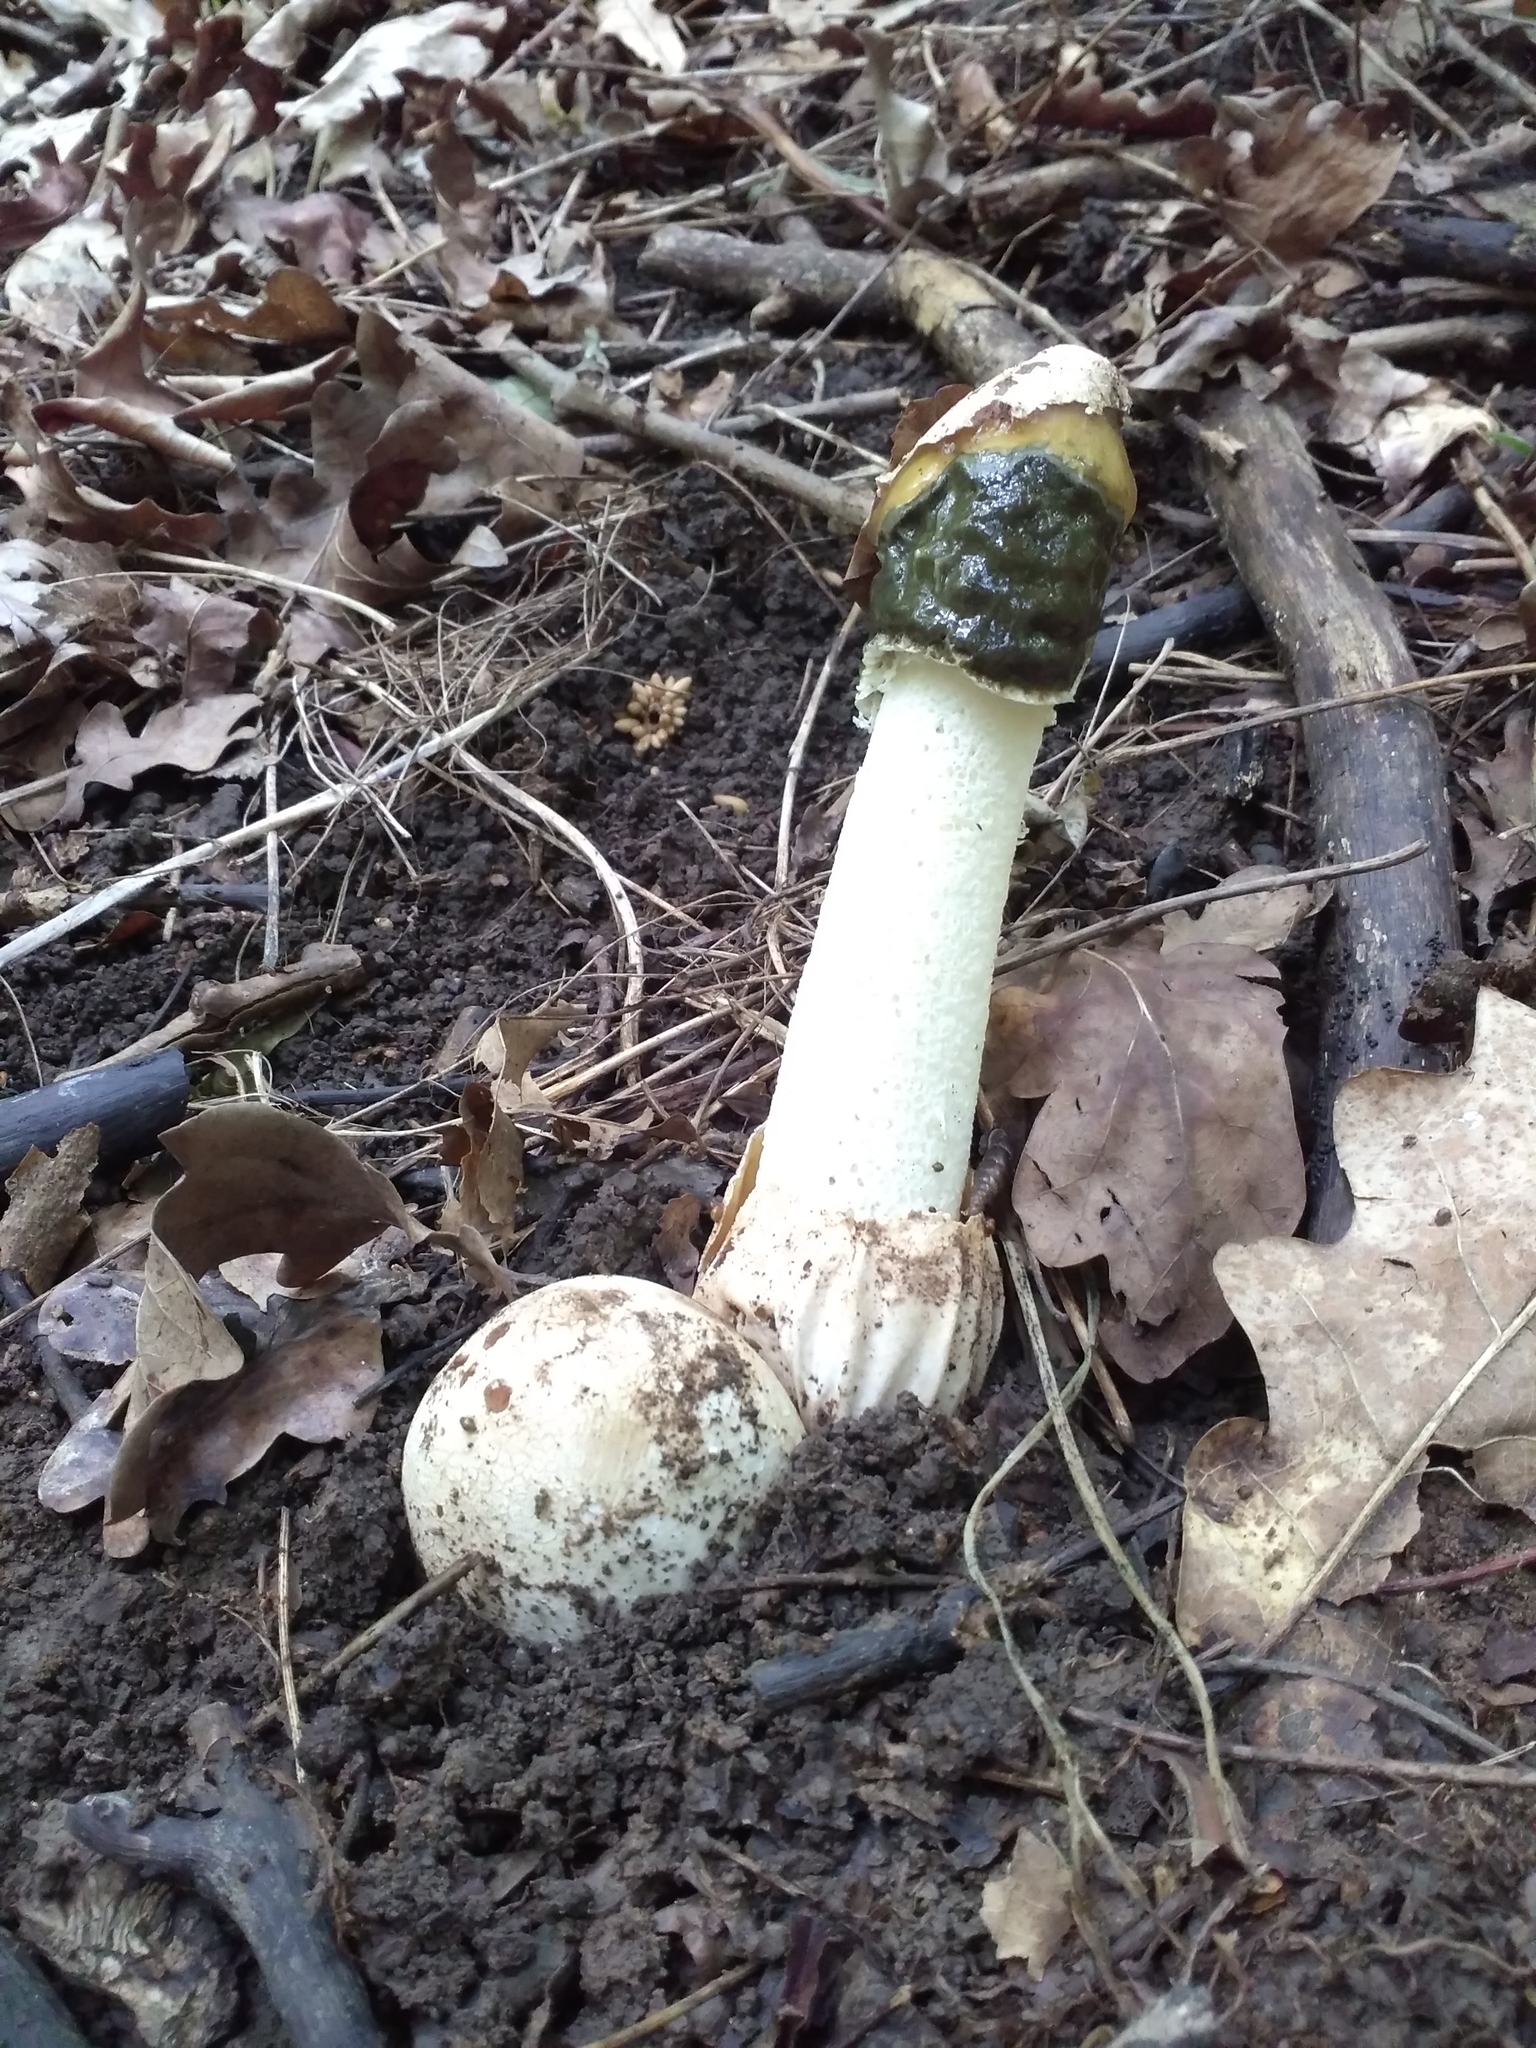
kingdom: Fungi
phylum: Basidiomycota
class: Agaricomycetes
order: Phallales
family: Phallaceae
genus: Phallus
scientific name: Phallus impudicus
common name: Common stinkhorn
